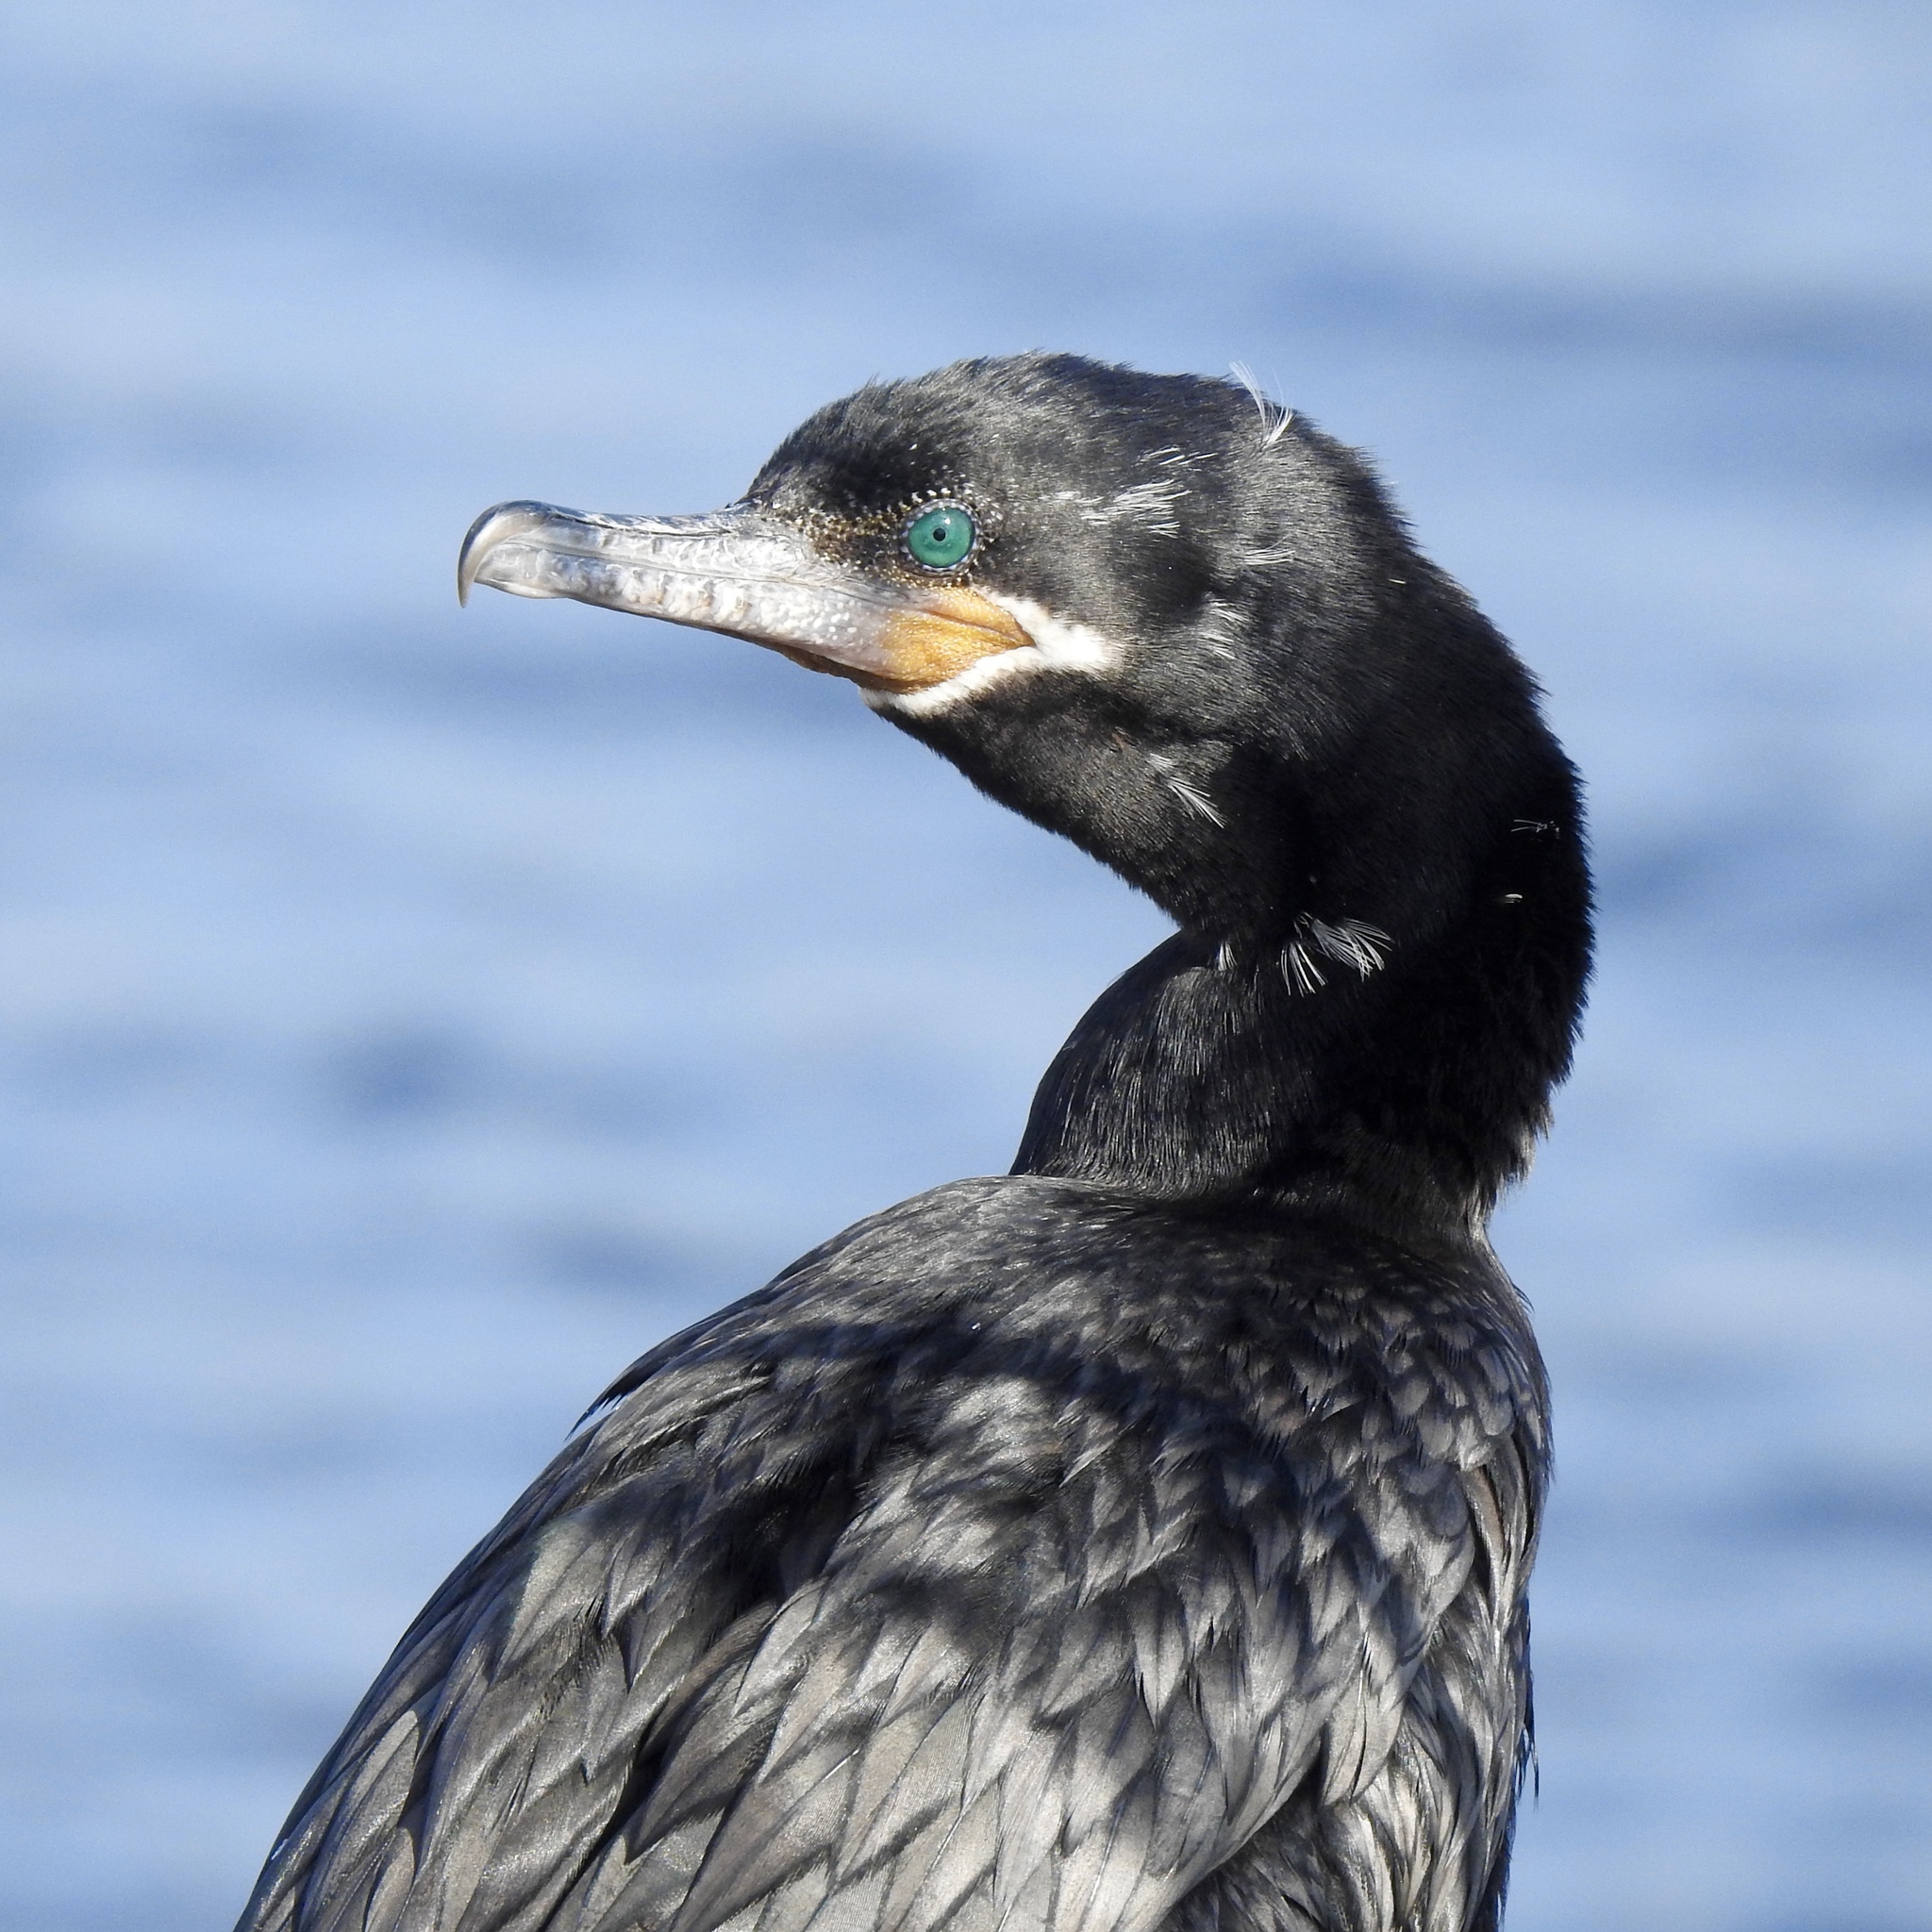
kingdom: Animalia
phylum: Chordata
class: Aves
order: Suliformes
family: Phalacrocoracidae
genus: Phalacrocorax
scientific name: Phalacrocorax brasilianus
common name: Neotropic cormorant
